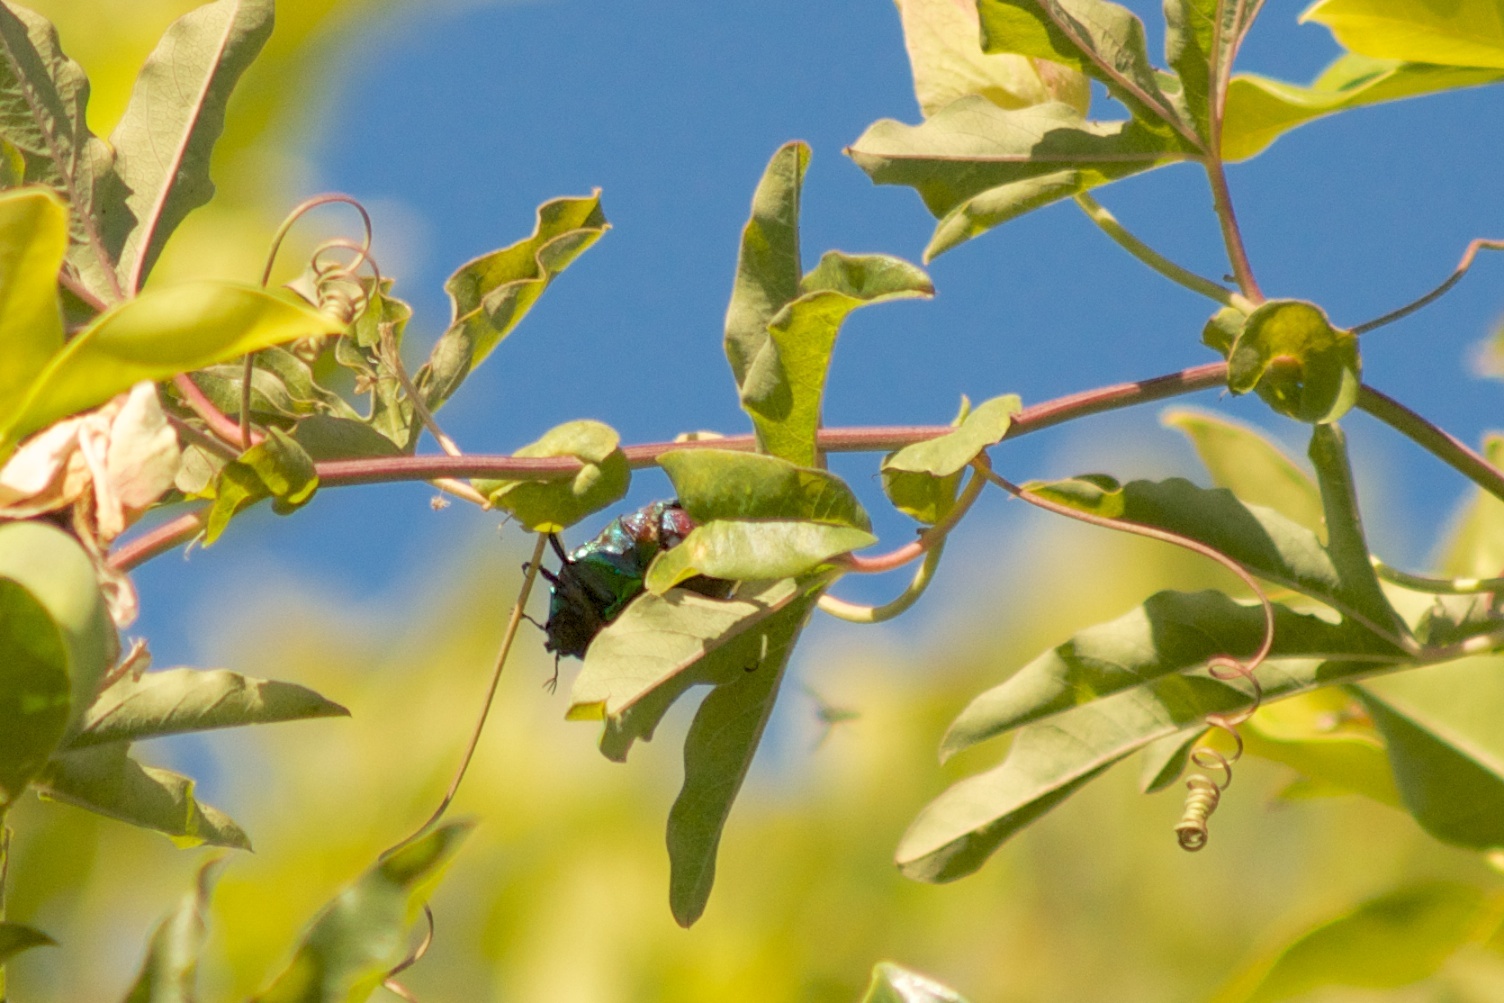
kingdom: Animalia
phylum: Arthropoda
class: Insecta
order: Coleoptera
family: Scarabaeidae
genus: Cotinis
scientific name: Cotinis mutabilis
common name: Figeater beetle
